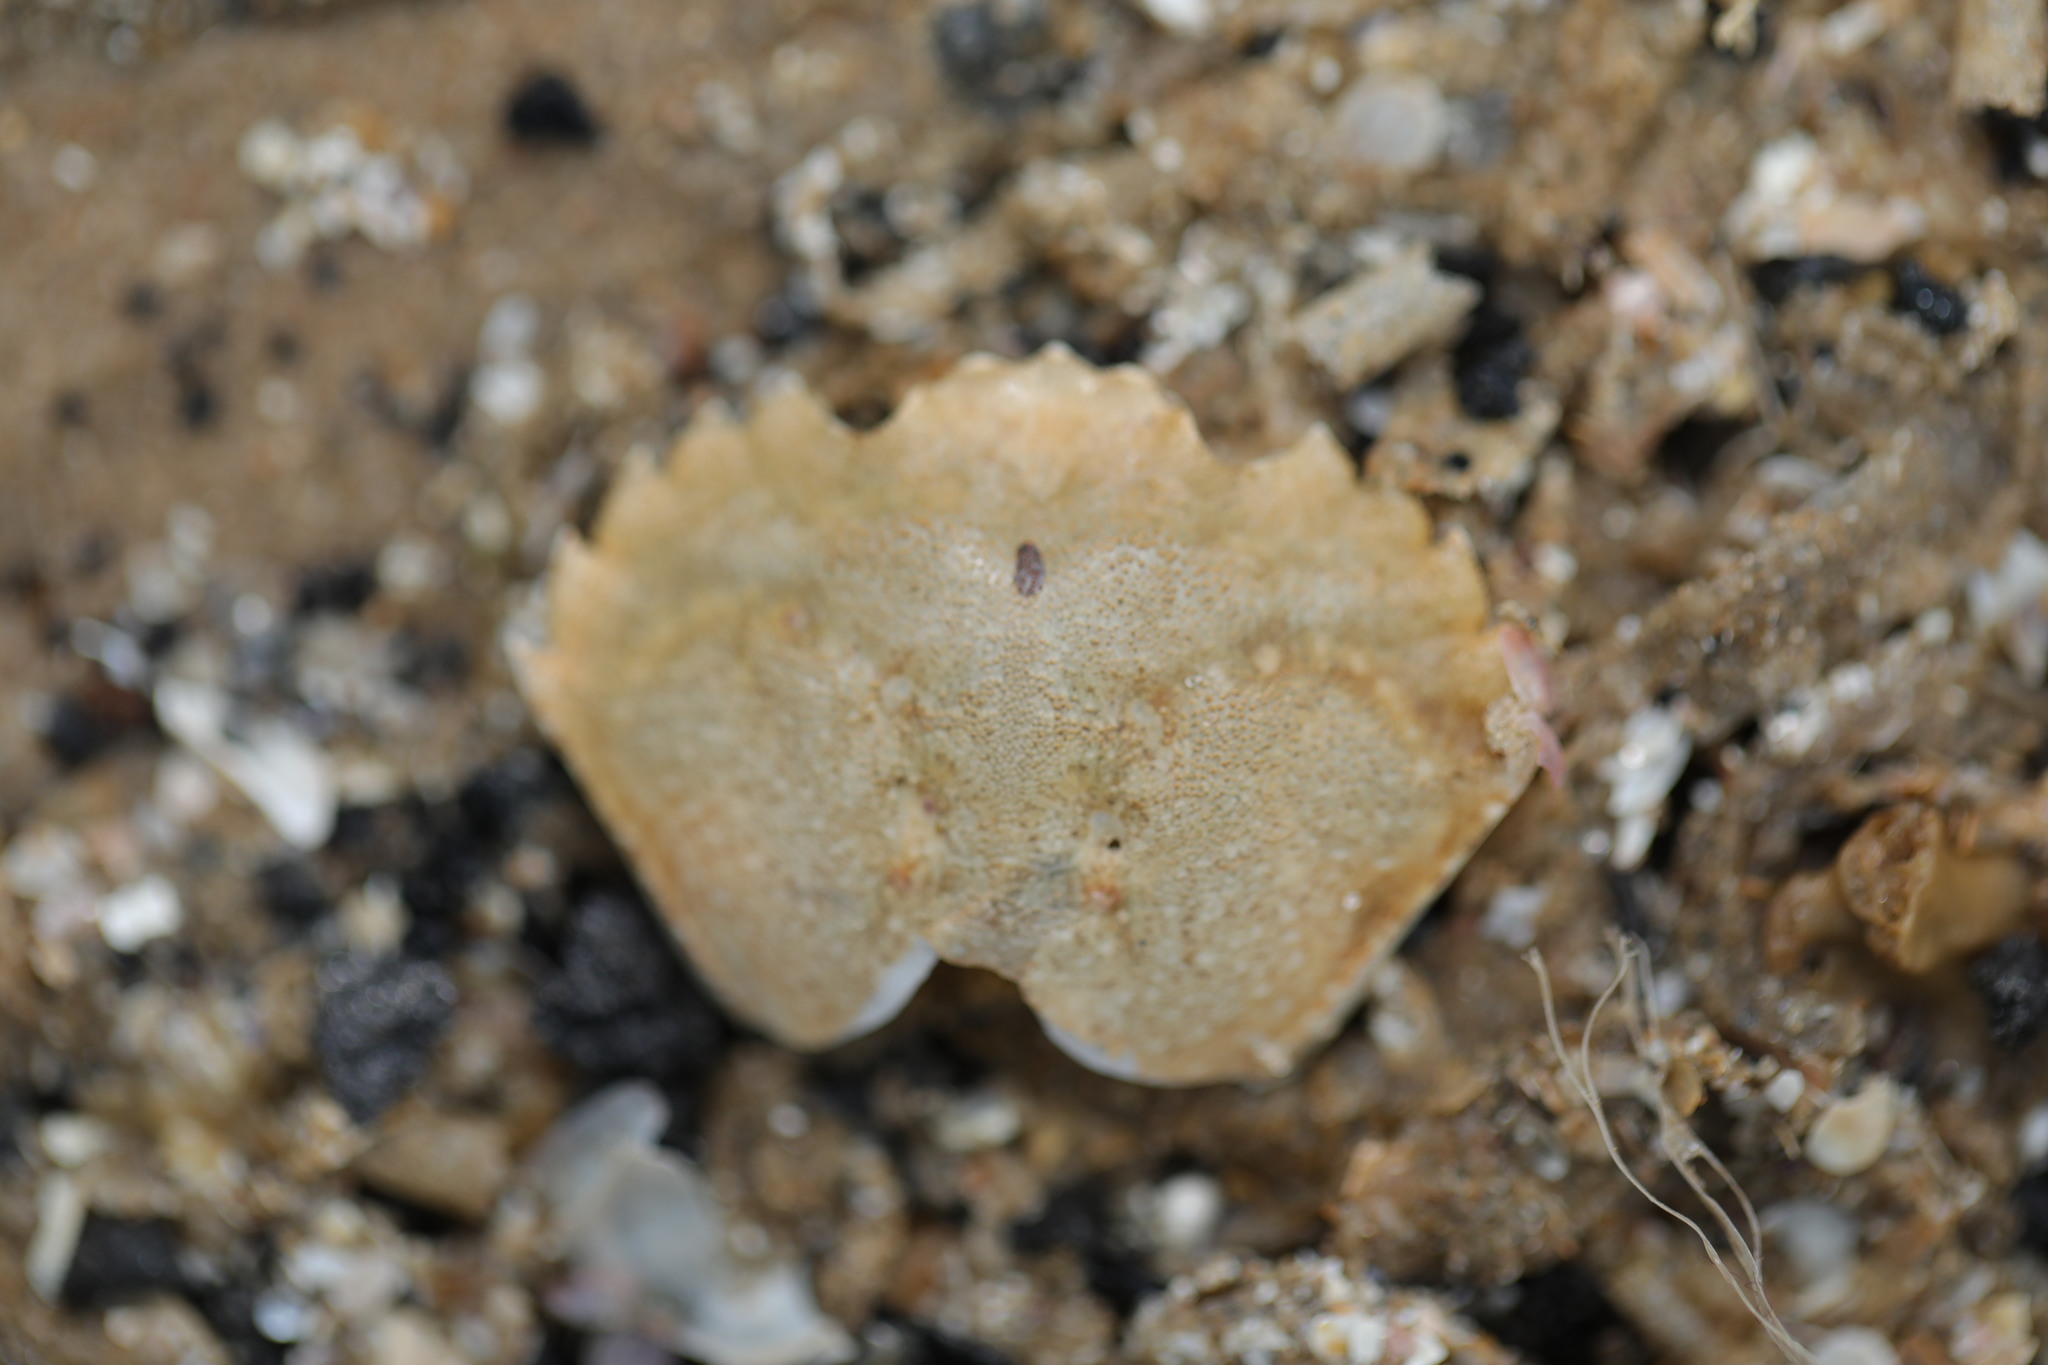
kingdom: Animalia
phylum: Arthropoda
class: Malacostraca
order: Decapoda
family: Carcinidae
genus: Carcinus
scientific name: Carcinus maenas
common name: European green crab
